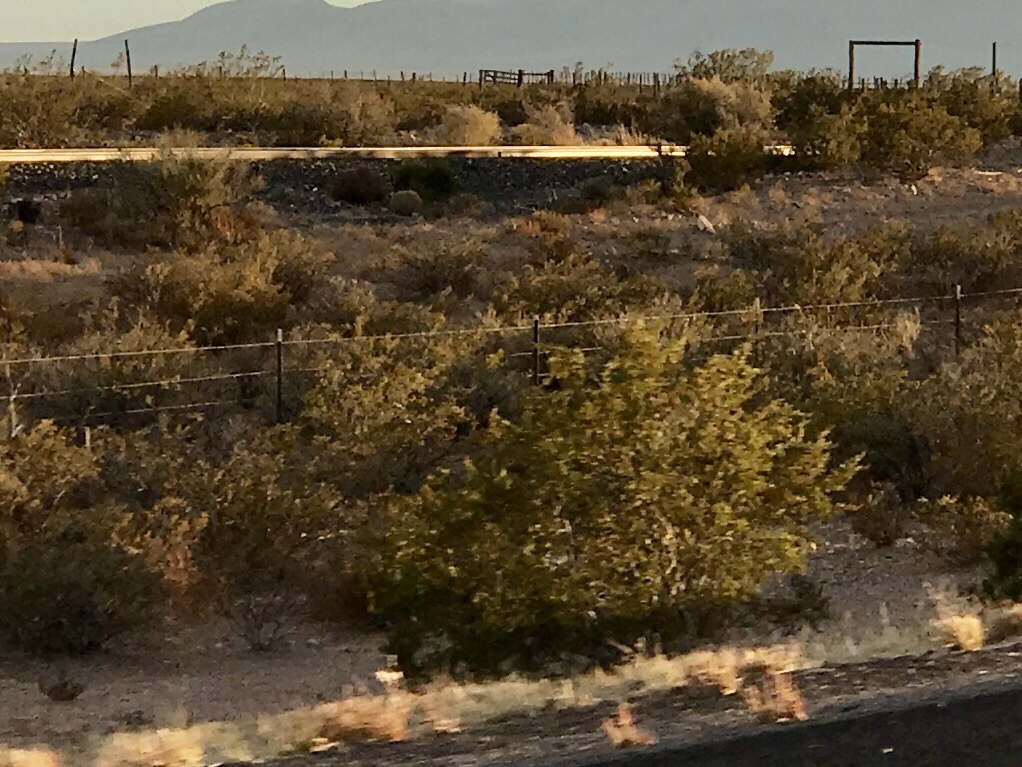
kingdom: Plantae
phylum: Tracheophyta
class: Magnoliopsida
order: Zygophyllales
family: Zygophyllaceae
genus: Larrea
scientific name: Larrea tridentata
